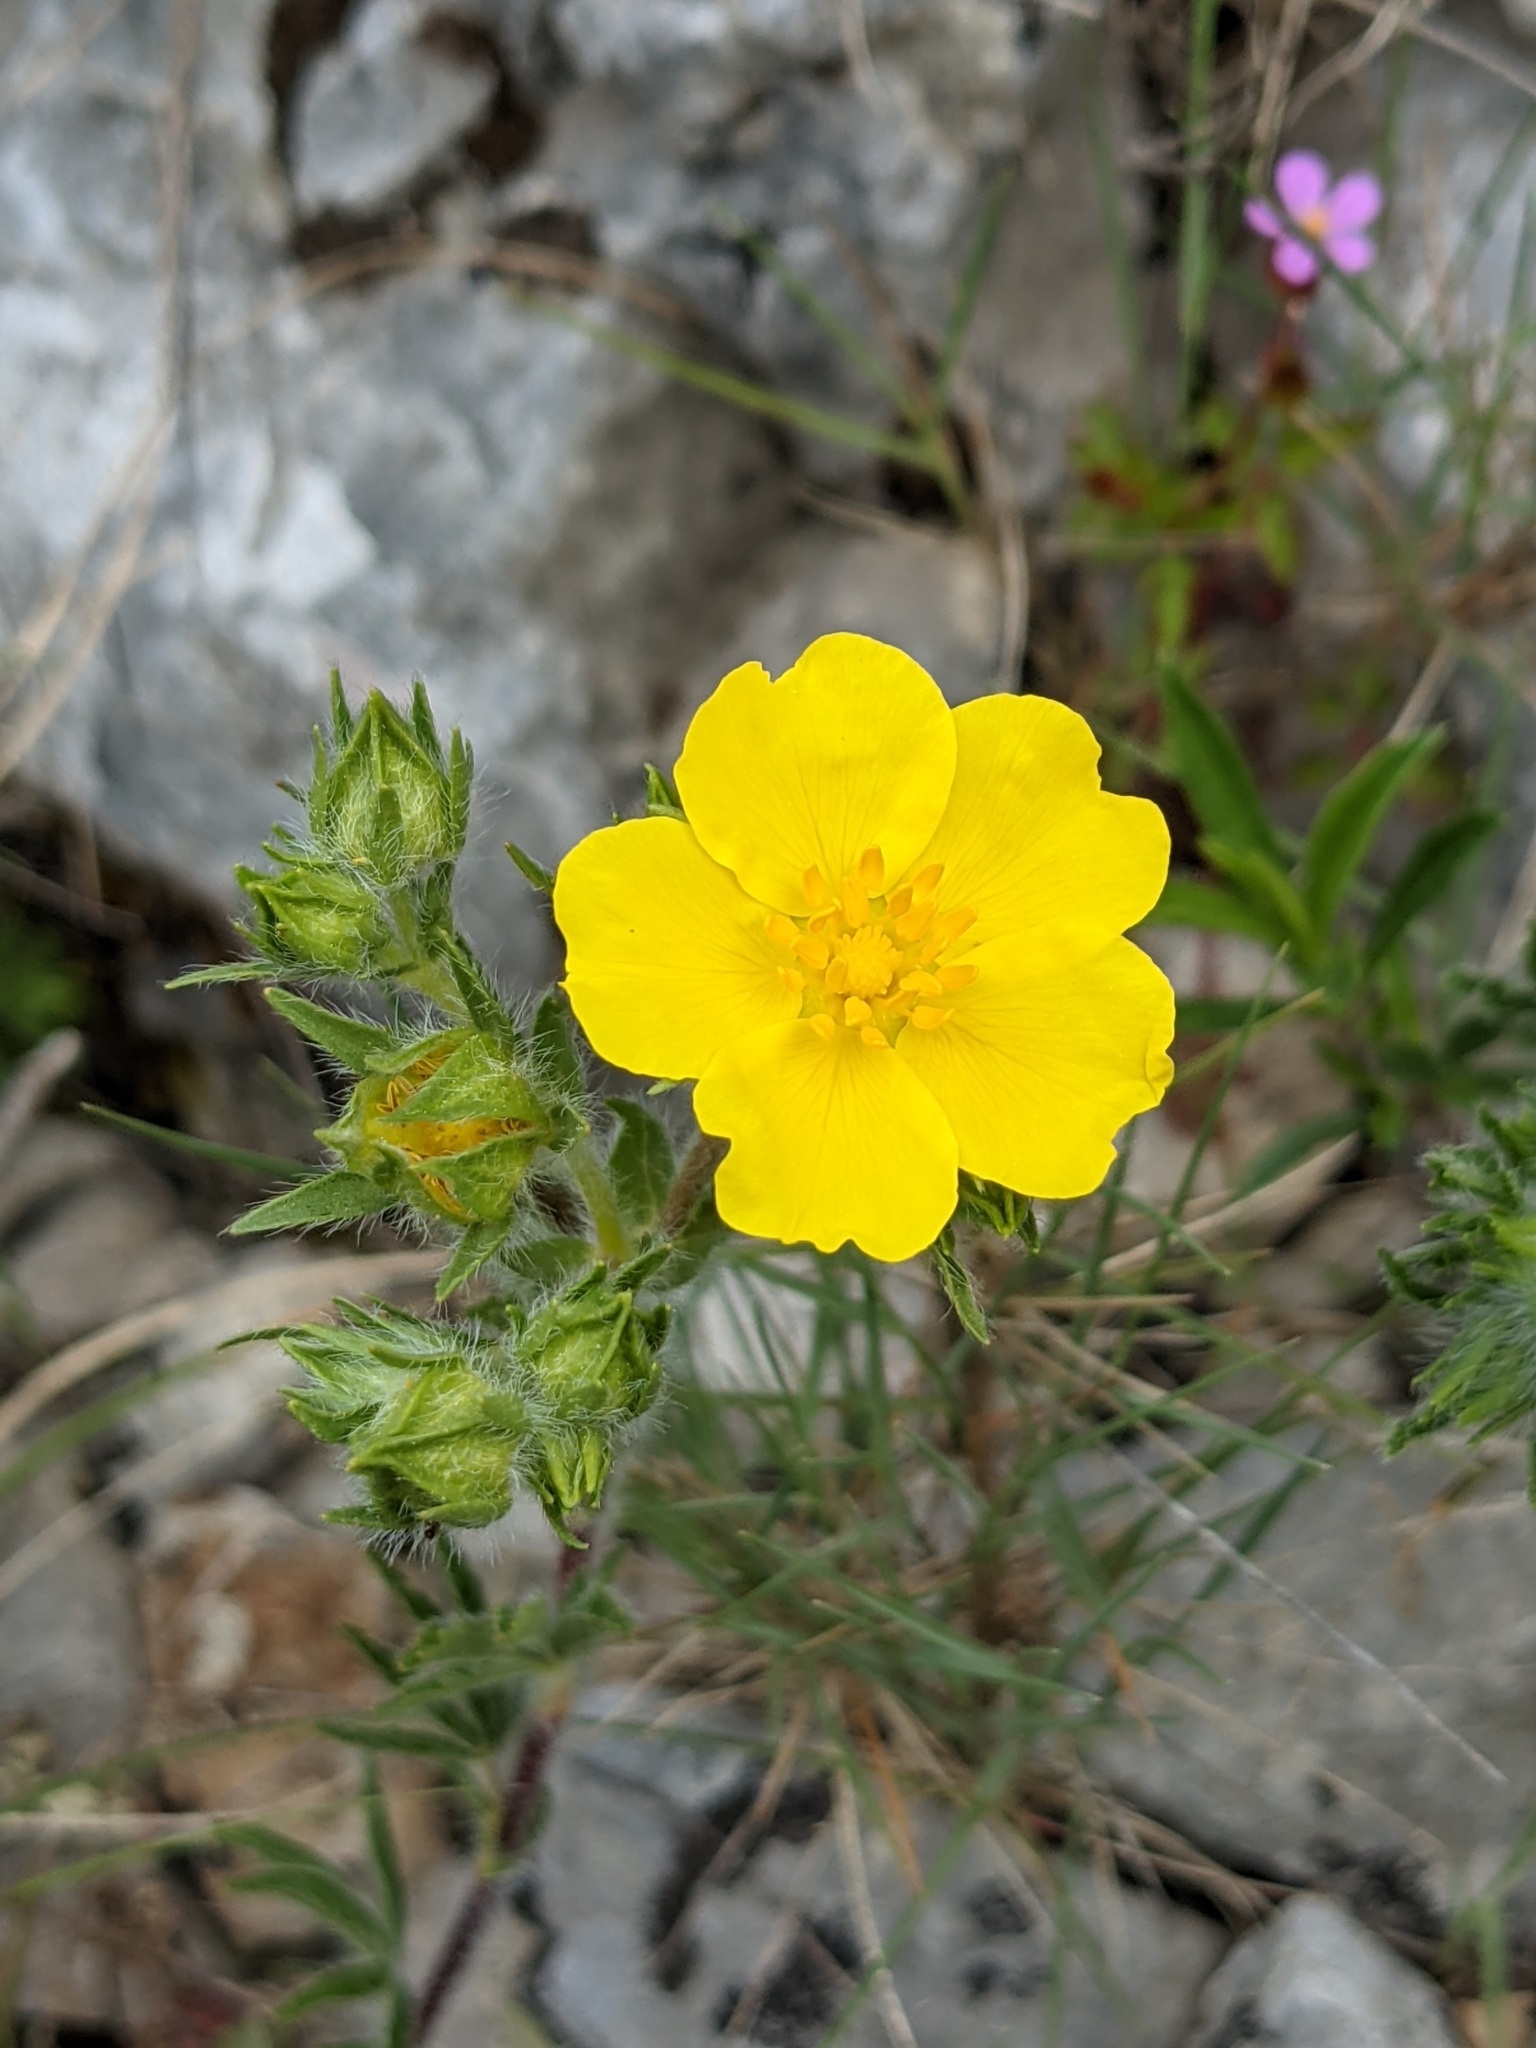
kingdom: Plantae
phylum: Tracheophyta
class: Magnoliopsida
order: Rosales
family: Rosaceae
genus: Potentilla
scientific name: Potentilla hirta
